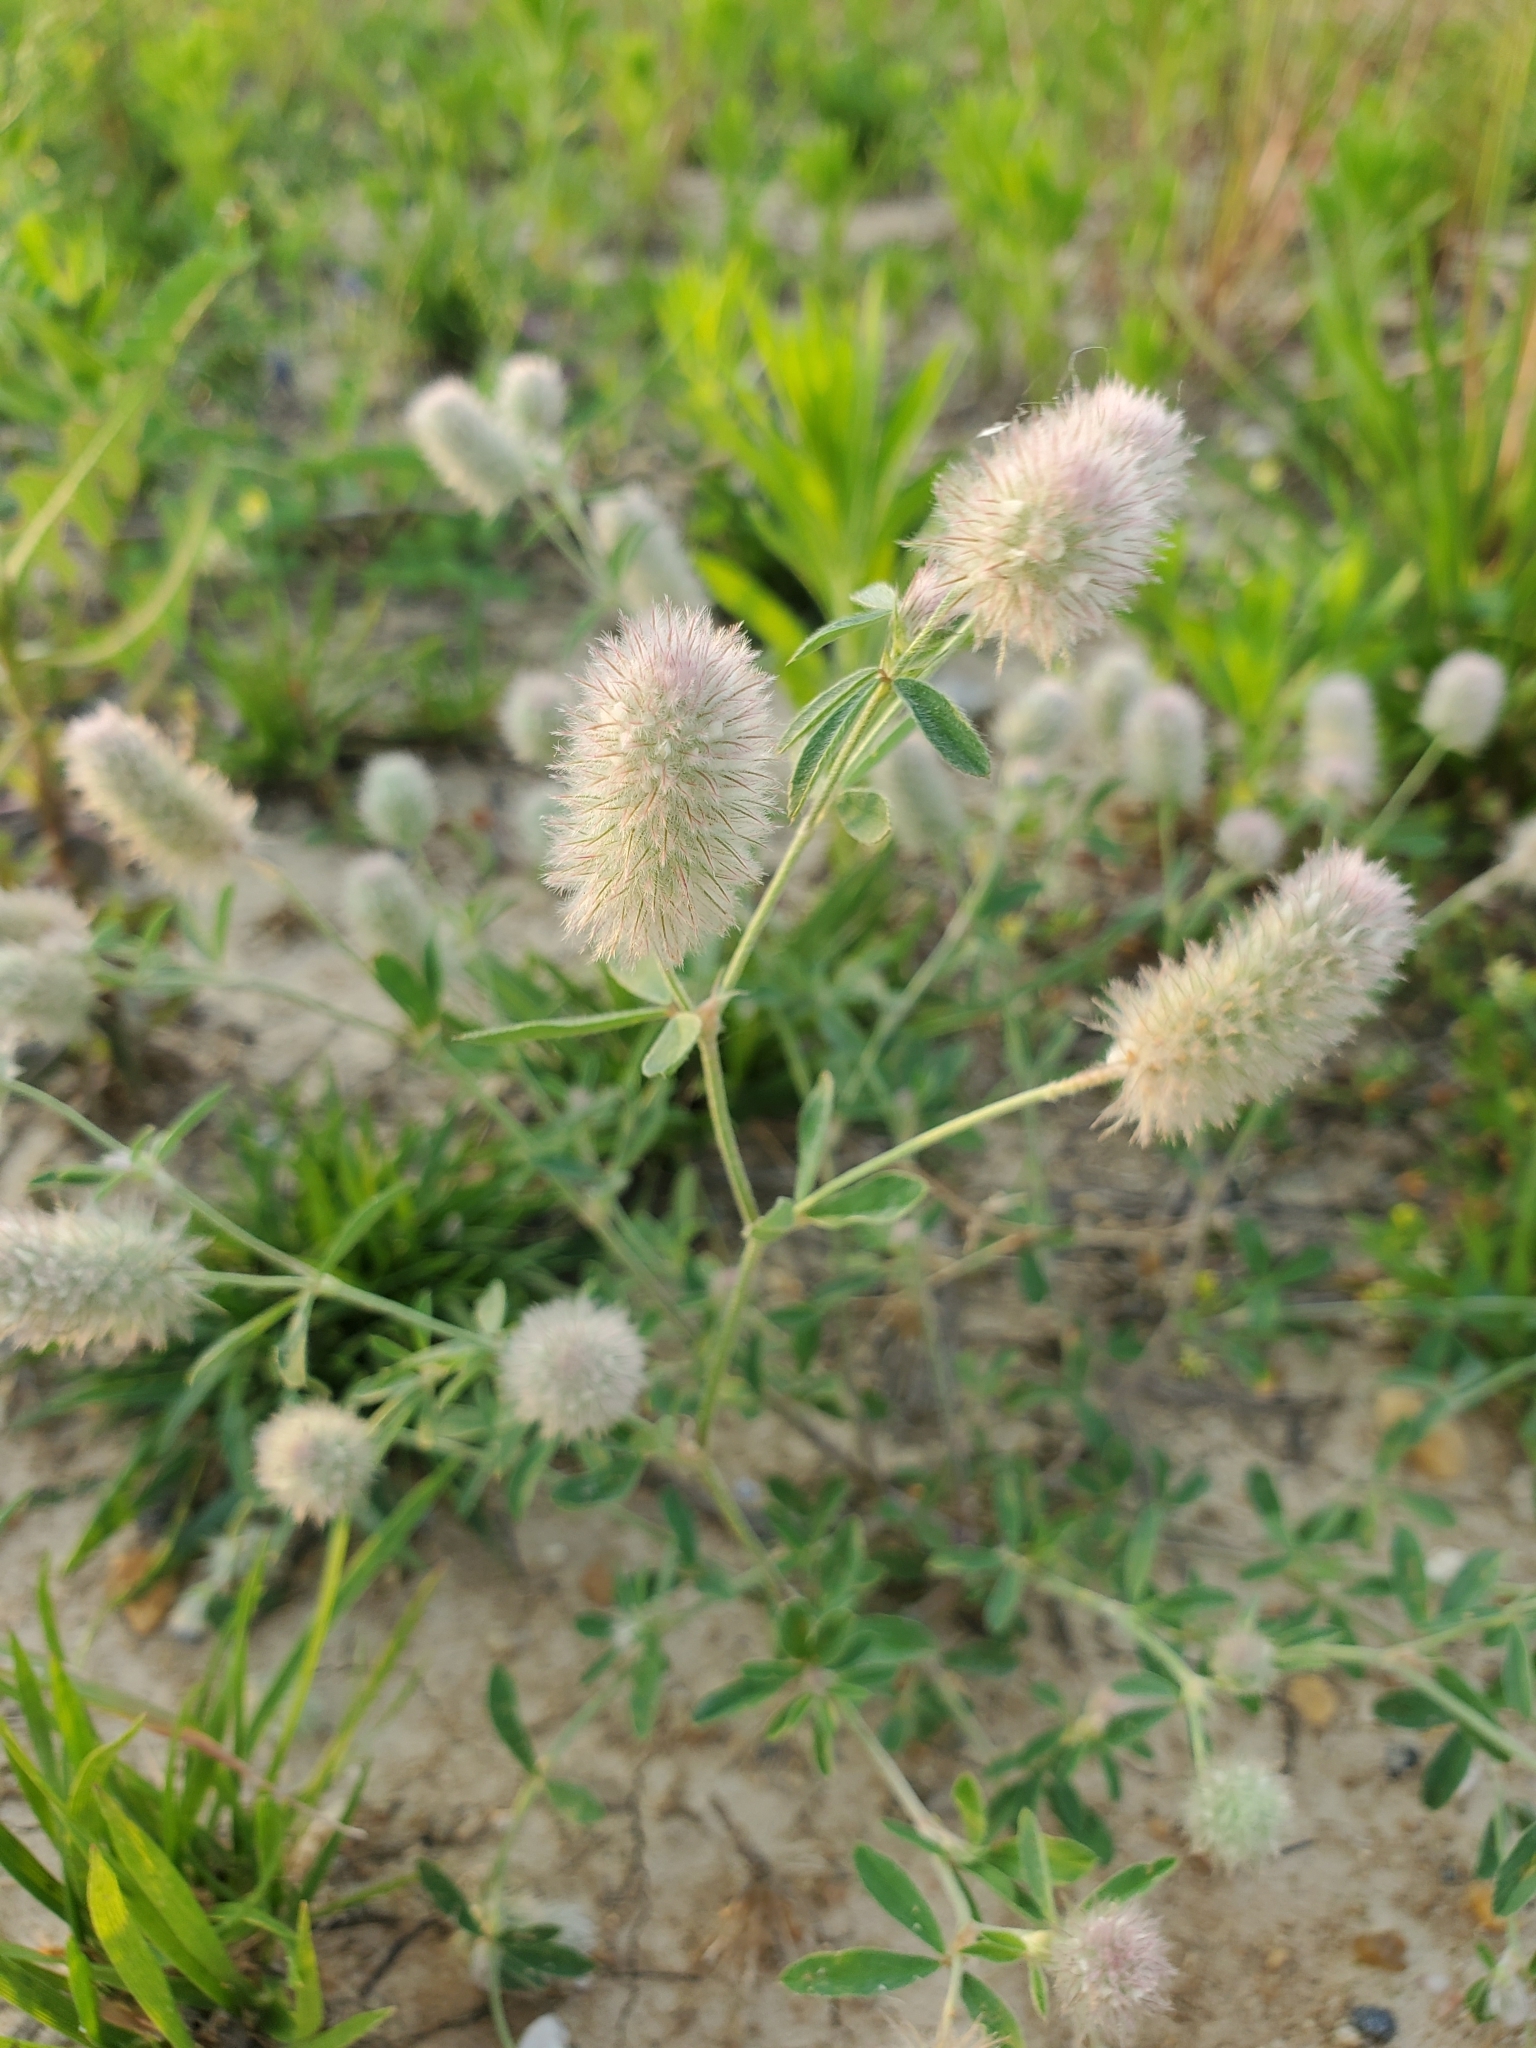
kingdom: Plantae
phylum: Tracheophyta
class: Magnoliopsida
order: Fabales
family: Fabaceae
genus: Trifolium
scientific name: Trifolium arvense
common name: Hare's-foot clover
